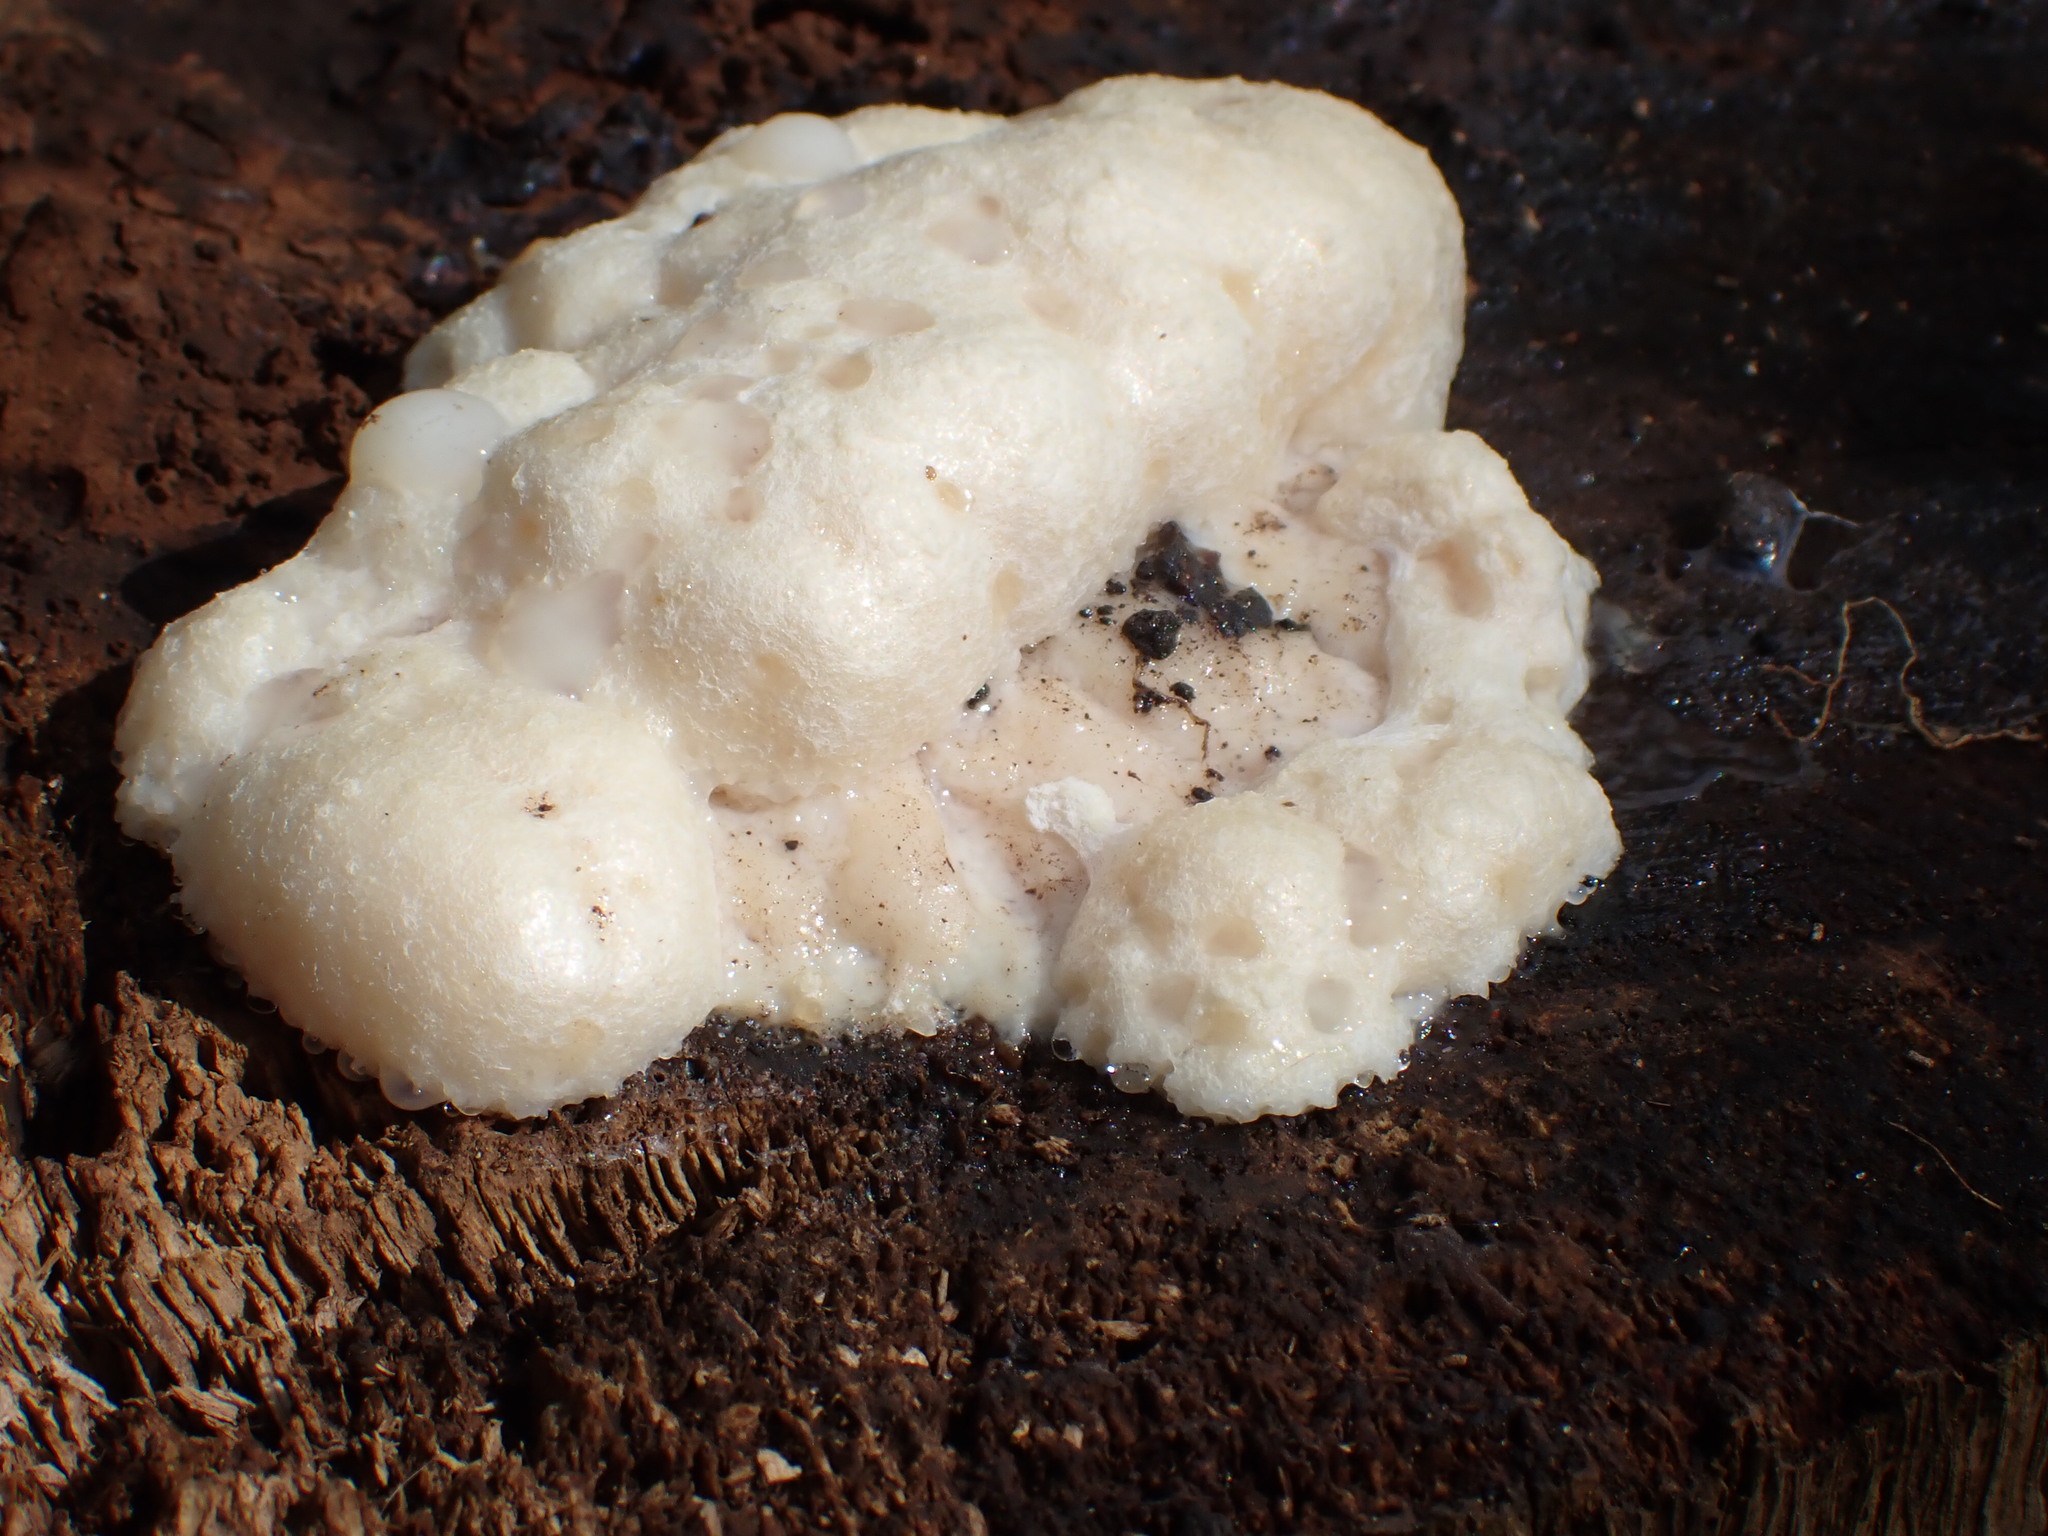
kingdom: Protozoa
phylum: Mycetozoa
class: Myxomycetes
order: Cribrariales
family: Tubiferaceae
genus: Reticularia
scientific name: Reticularia lycoperdon
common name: False puffball
